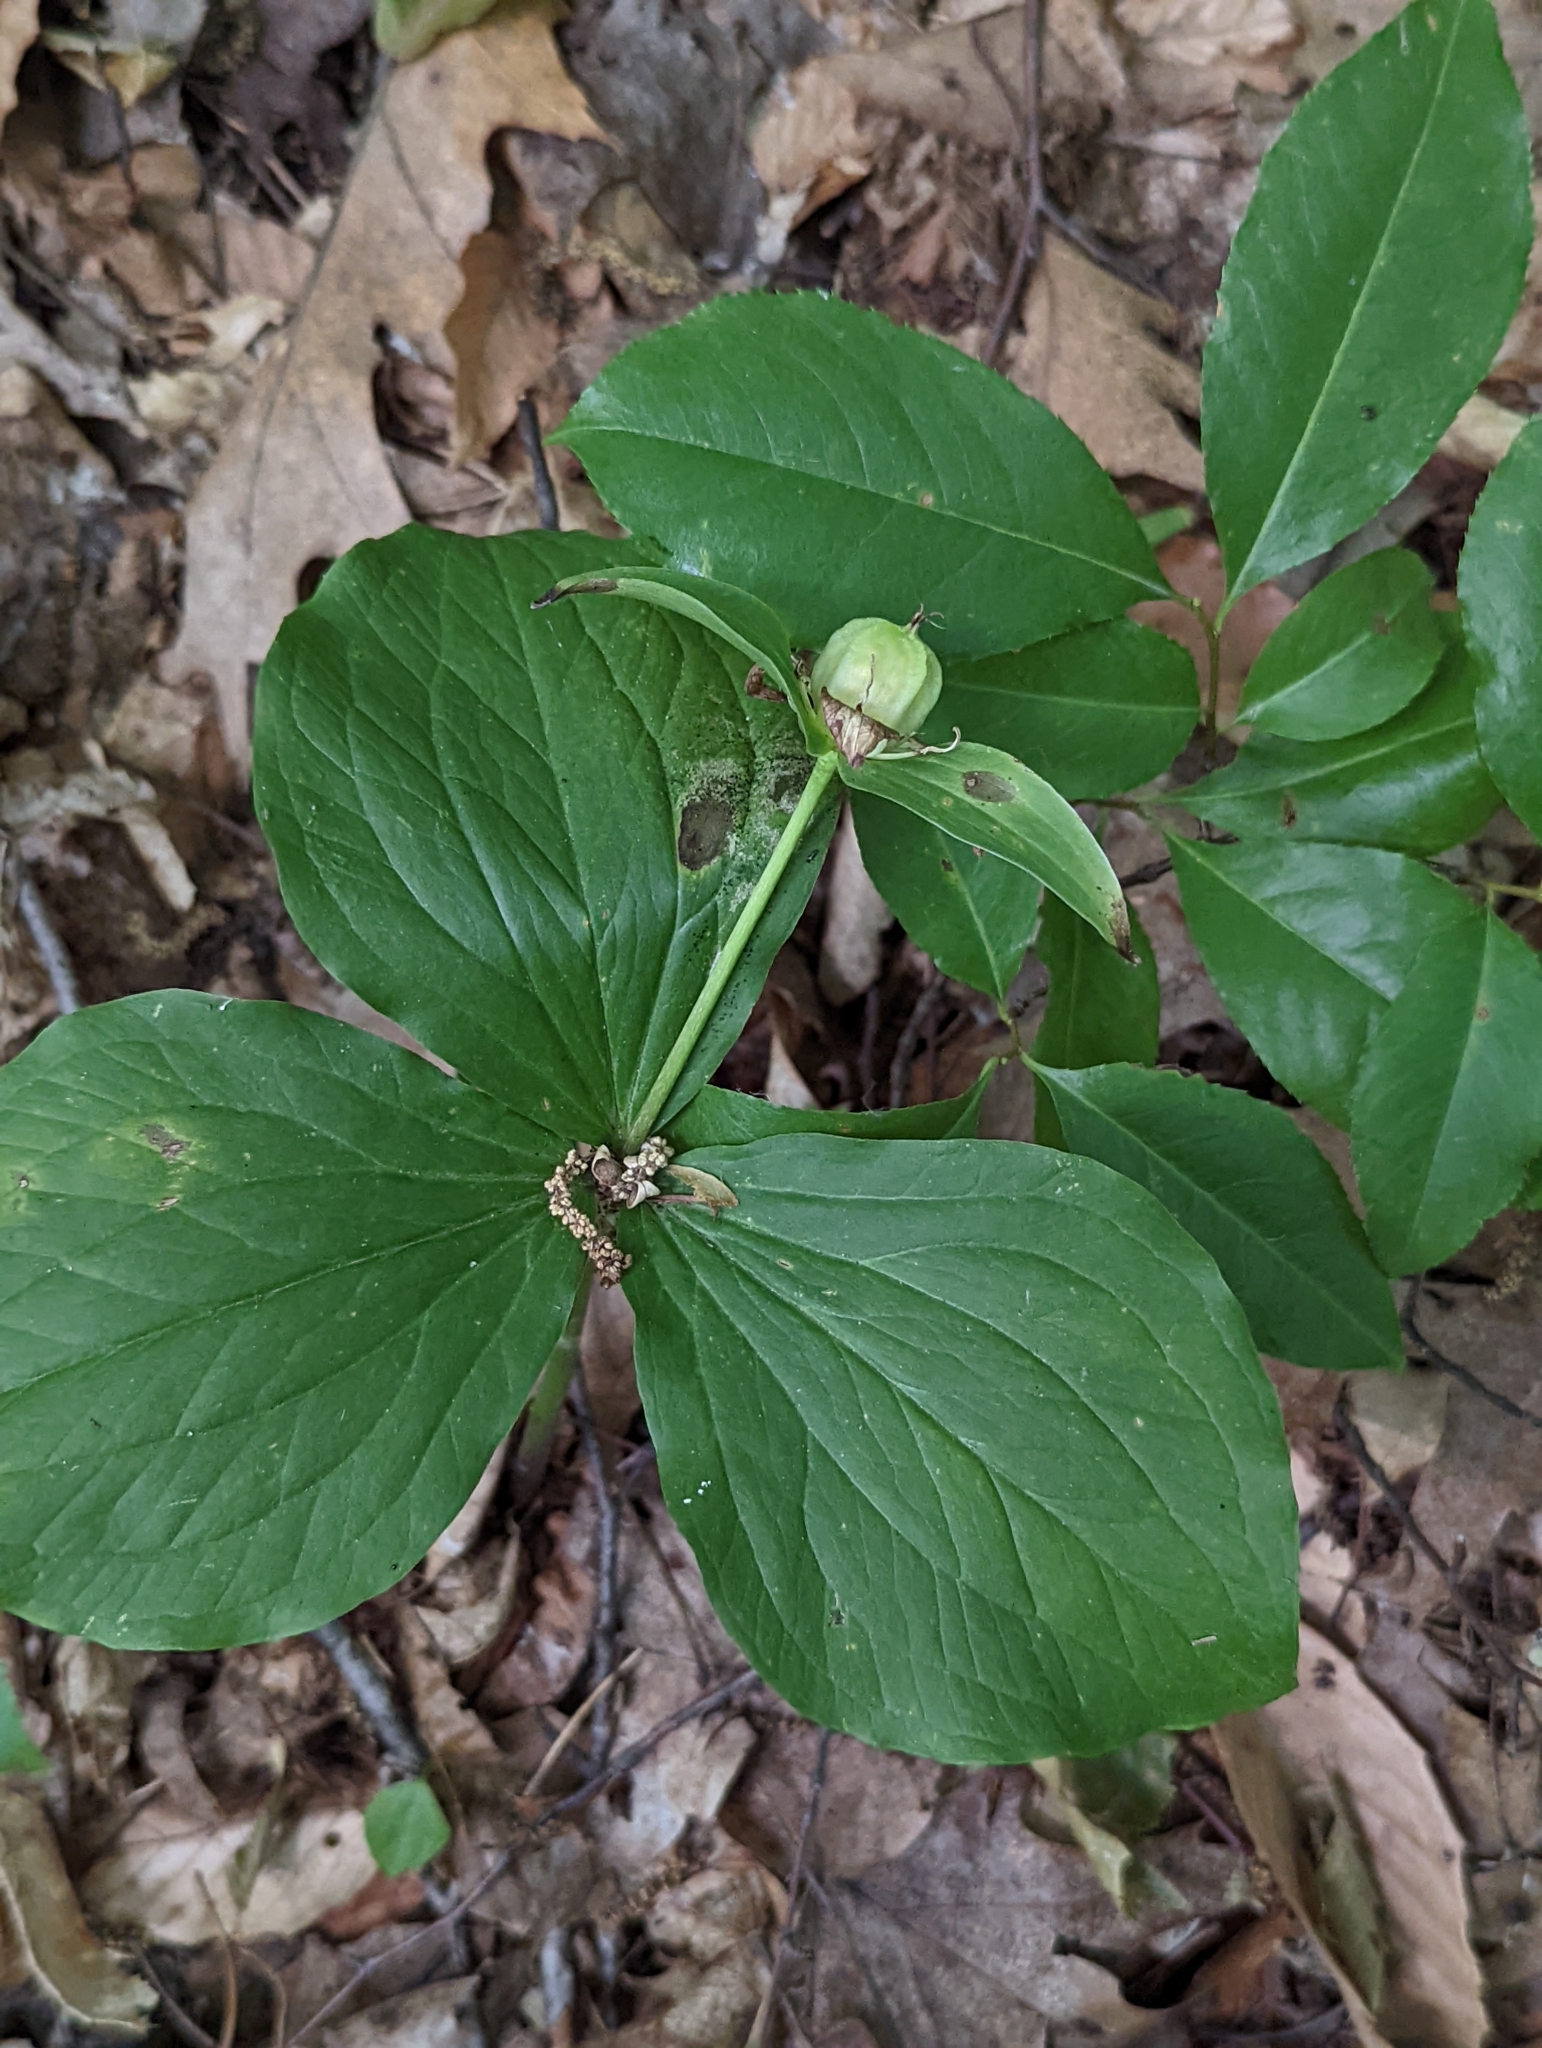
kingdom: Plantae
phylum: Tracheophyta
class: Liliopsida
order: Liliales
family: Melanthiaceae
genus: Trillium
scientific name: Trillium grandiflorum
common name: Great white trillium
